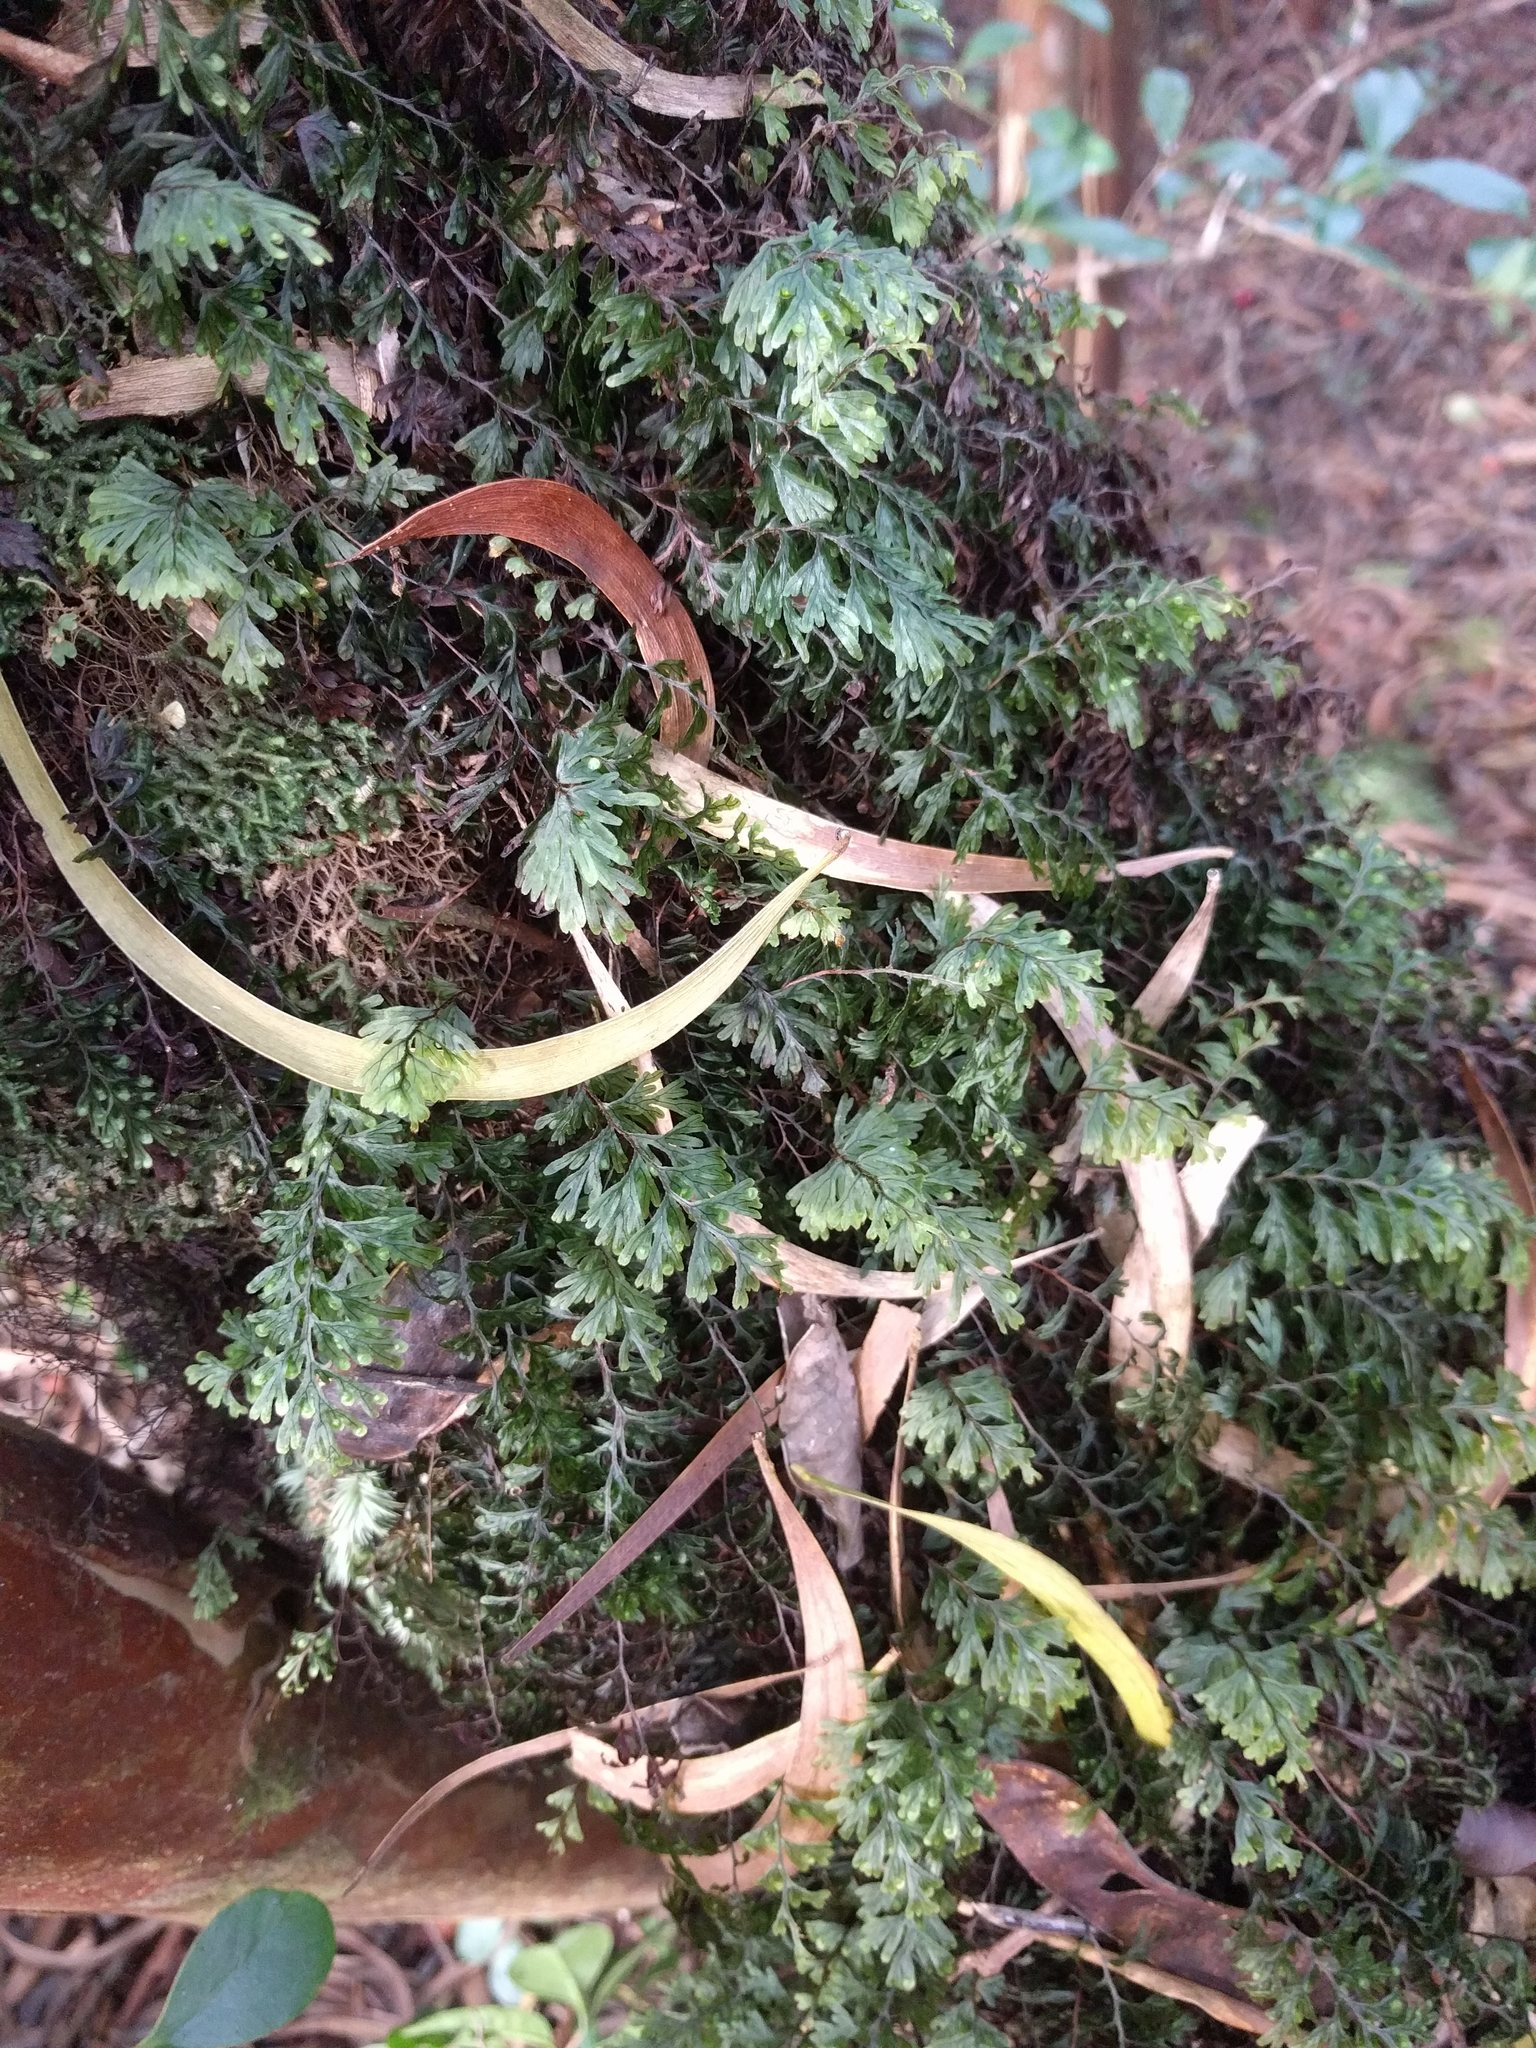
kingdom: Plantae
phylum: Tracheophyta
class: Polypodiopsida
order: Hymenophyllales
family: Hymenophyllaceae
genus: Hymenophyllum
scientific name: Hymenophyllum lanceolatum
